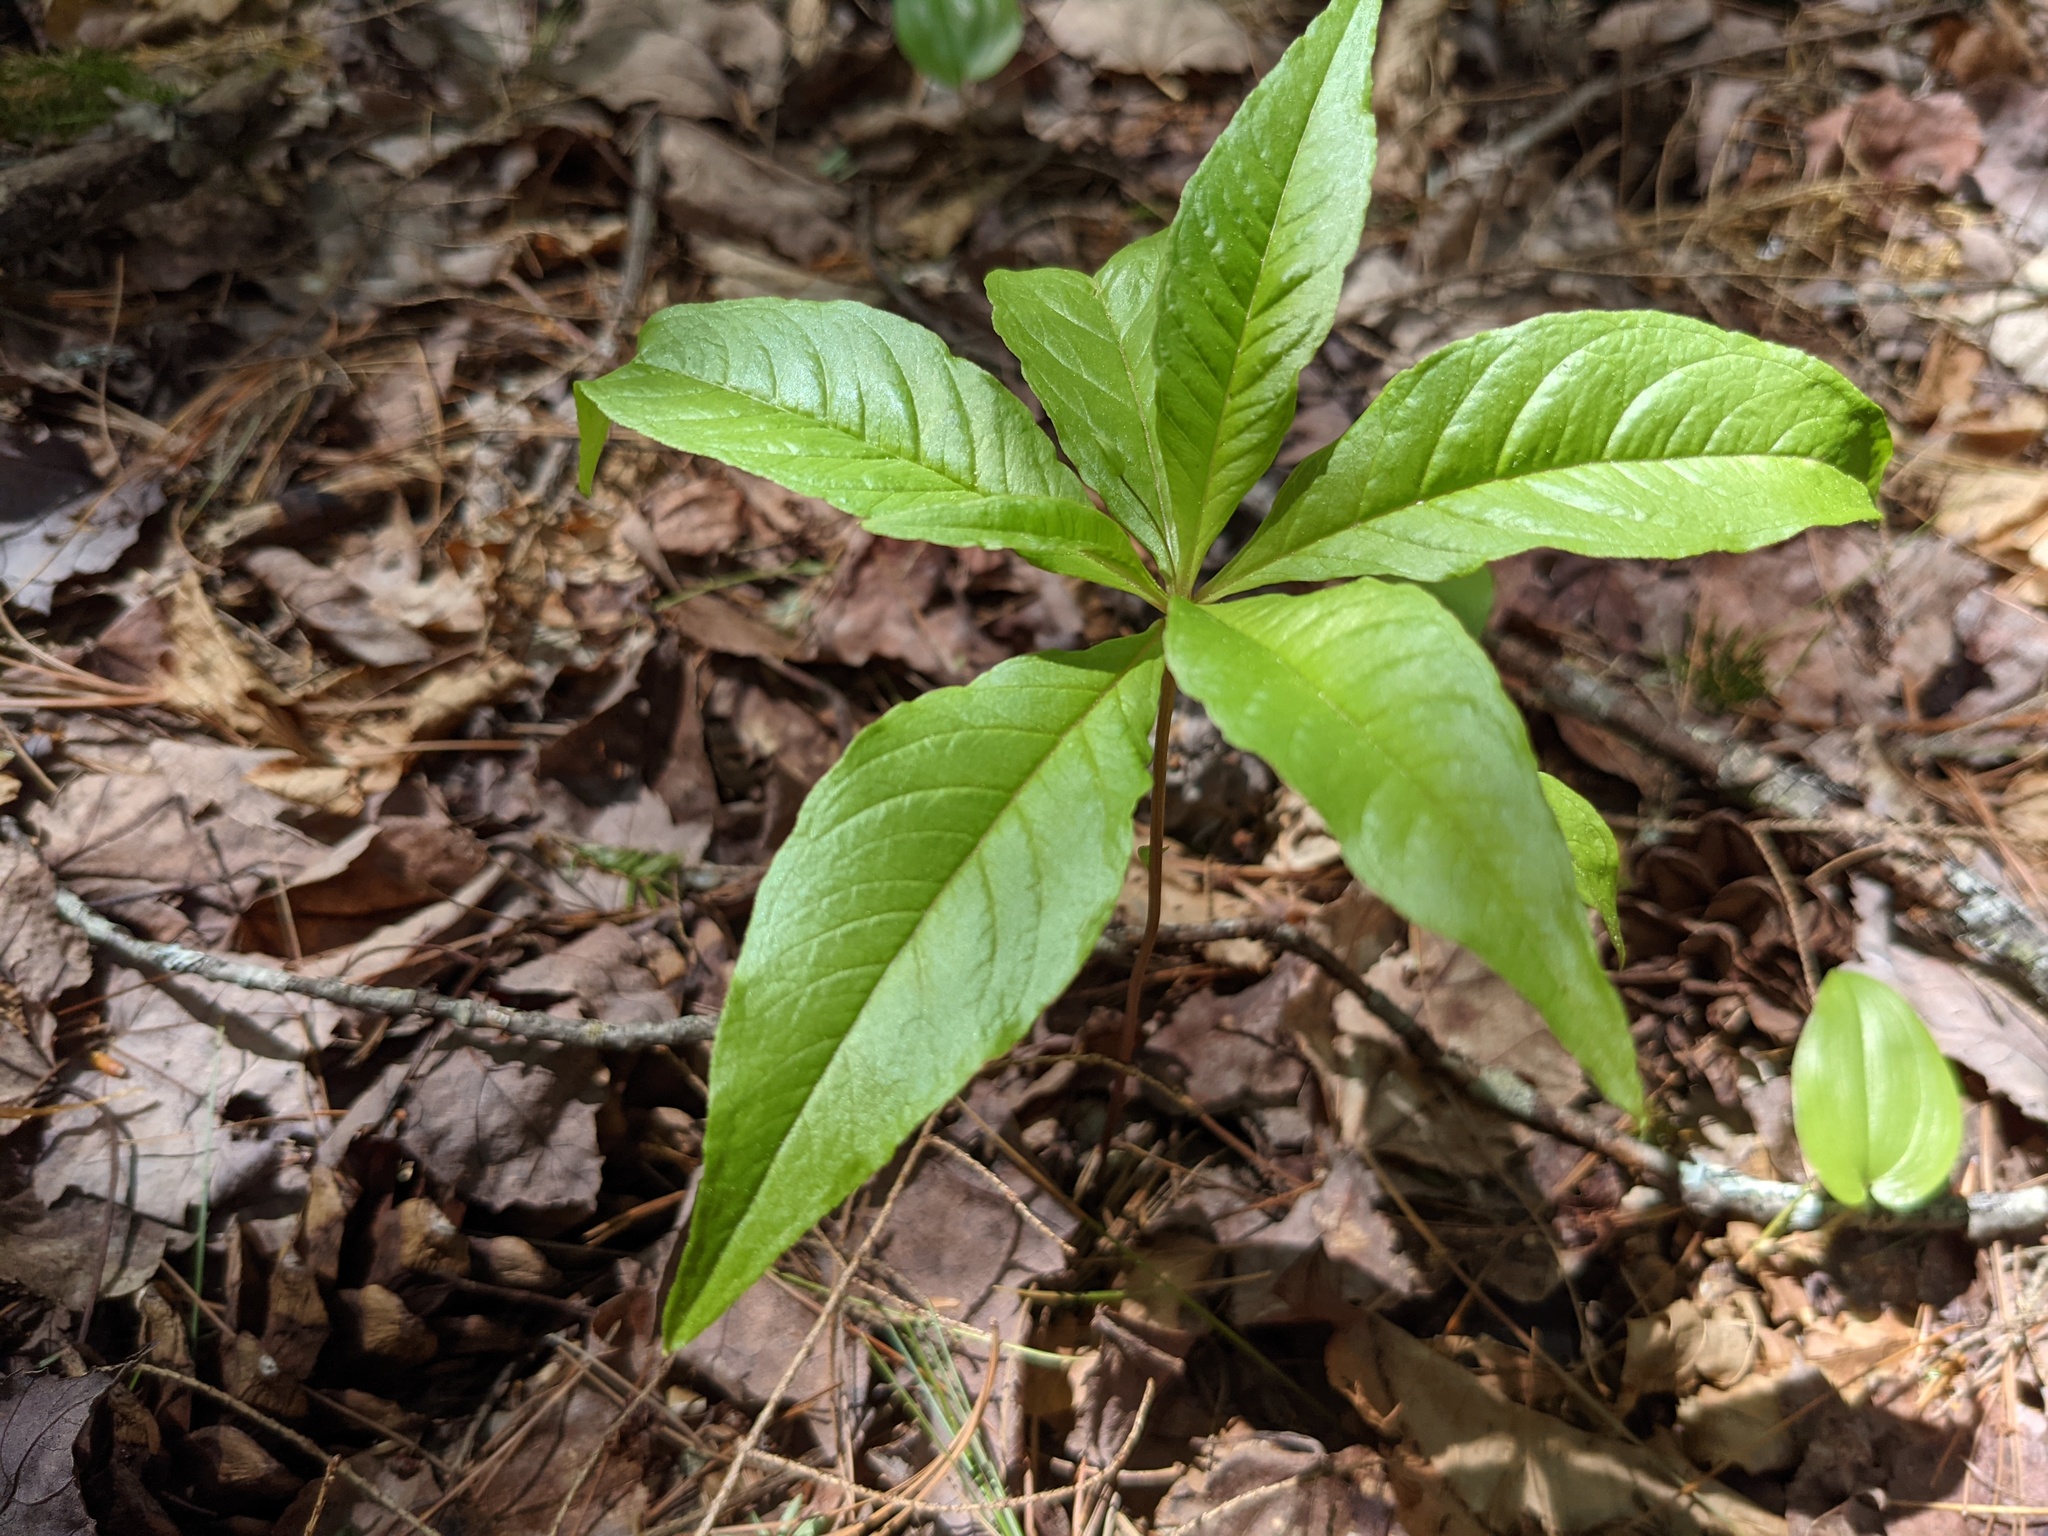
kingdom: Plantae
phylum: Tracheophyta
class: Magnoliopsida
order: Ericales
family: Primulaceae
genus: Lysimachia
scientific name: Lysimachia borealis
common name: American starflower
